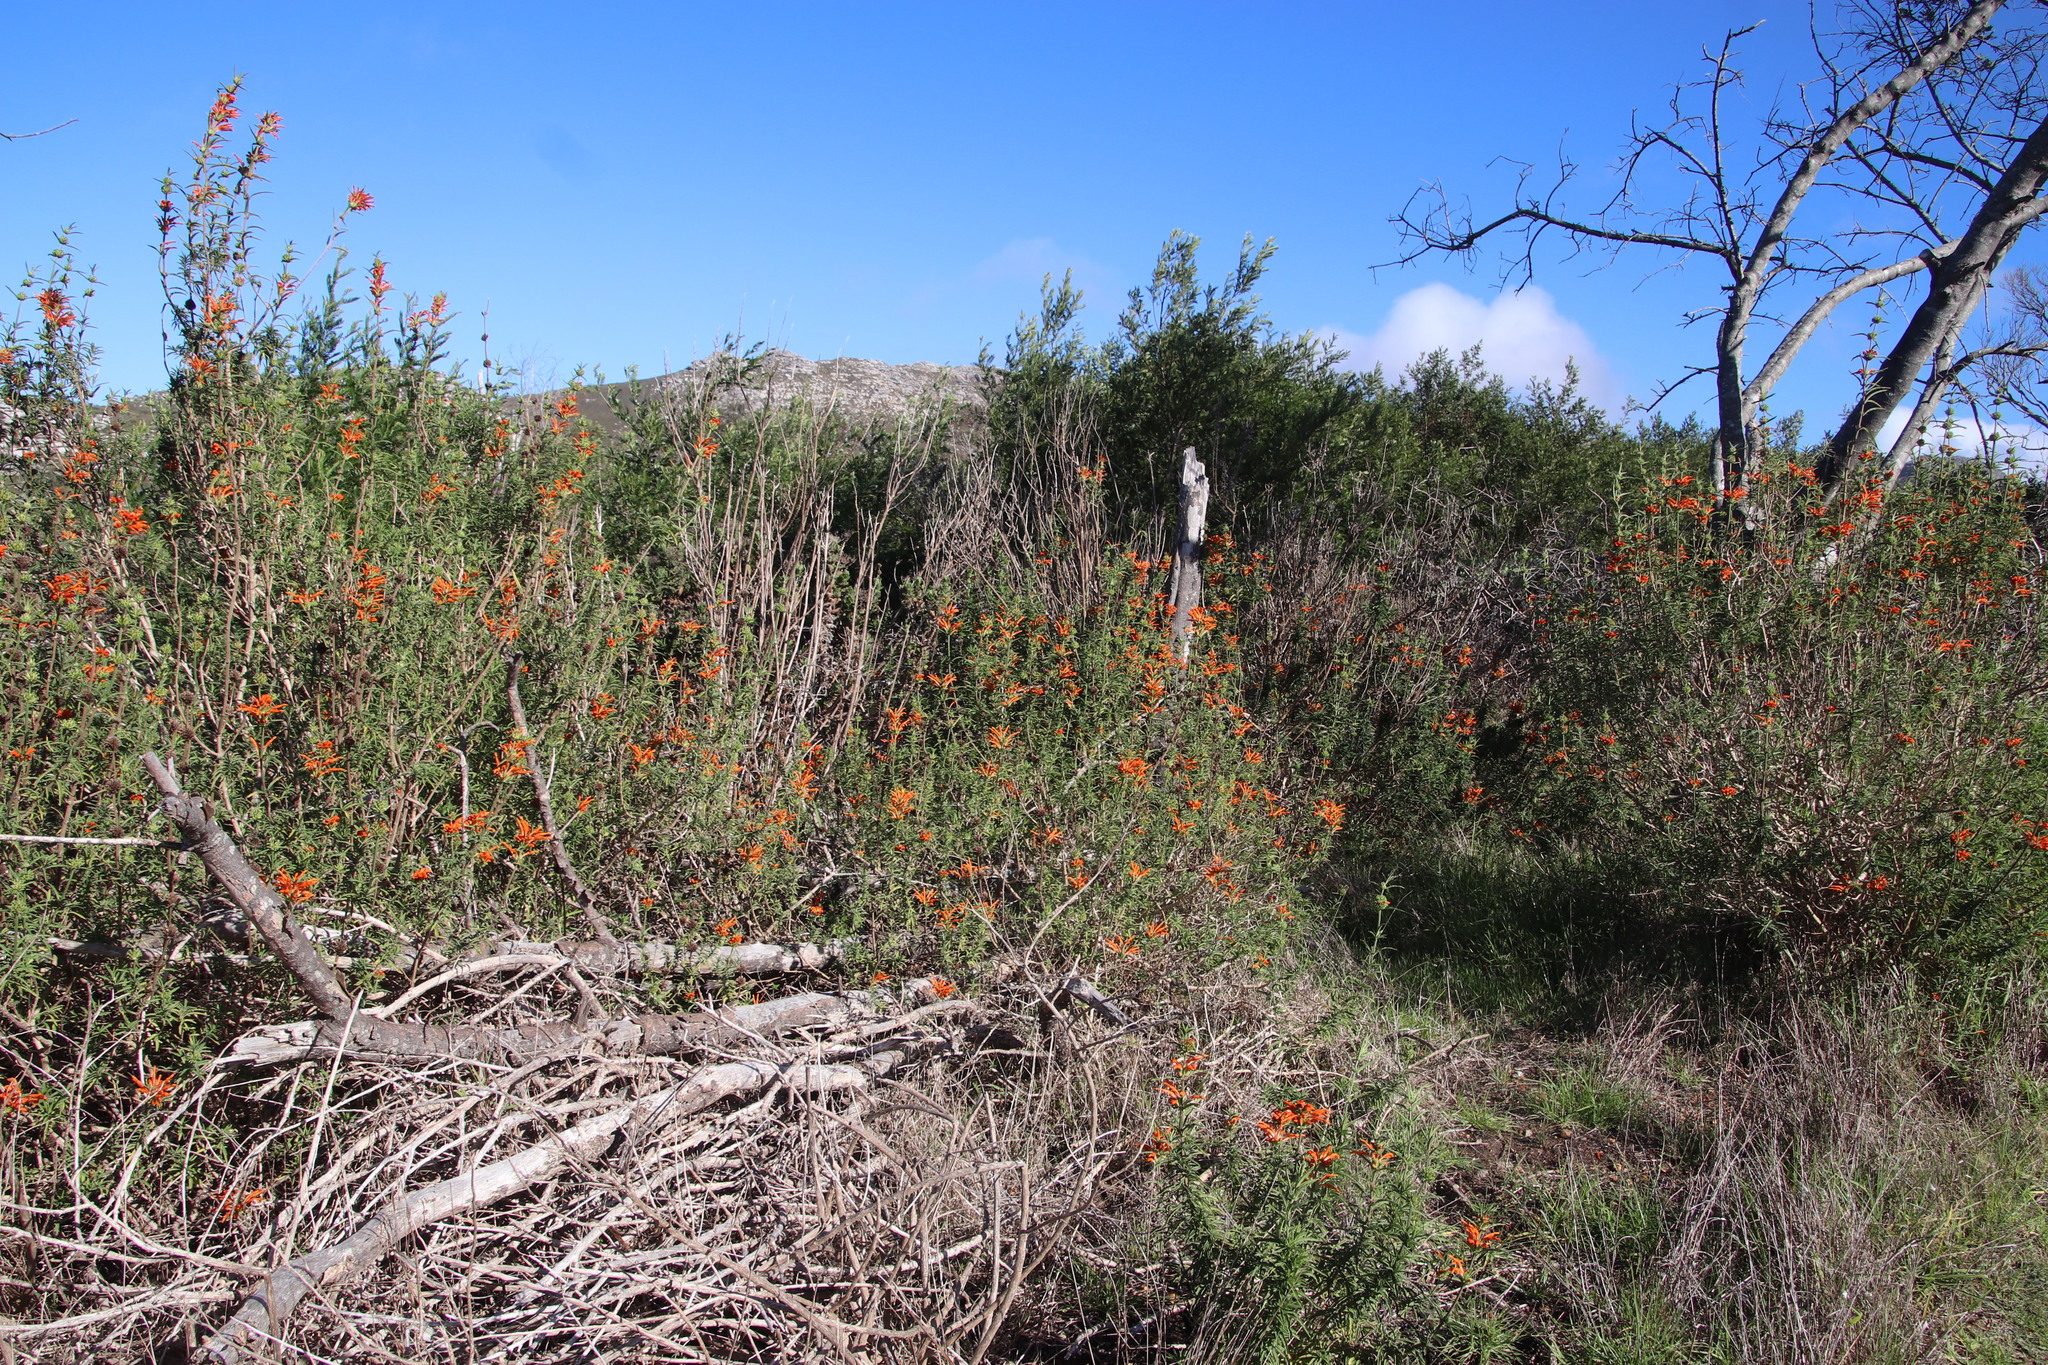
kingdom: Plantae
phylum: Tracheophyta
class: Magnoliopsida
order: Lamiales
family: Lamiaceae
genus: Leonotis
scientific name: Leonotis leonurus
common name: Lion's ear
